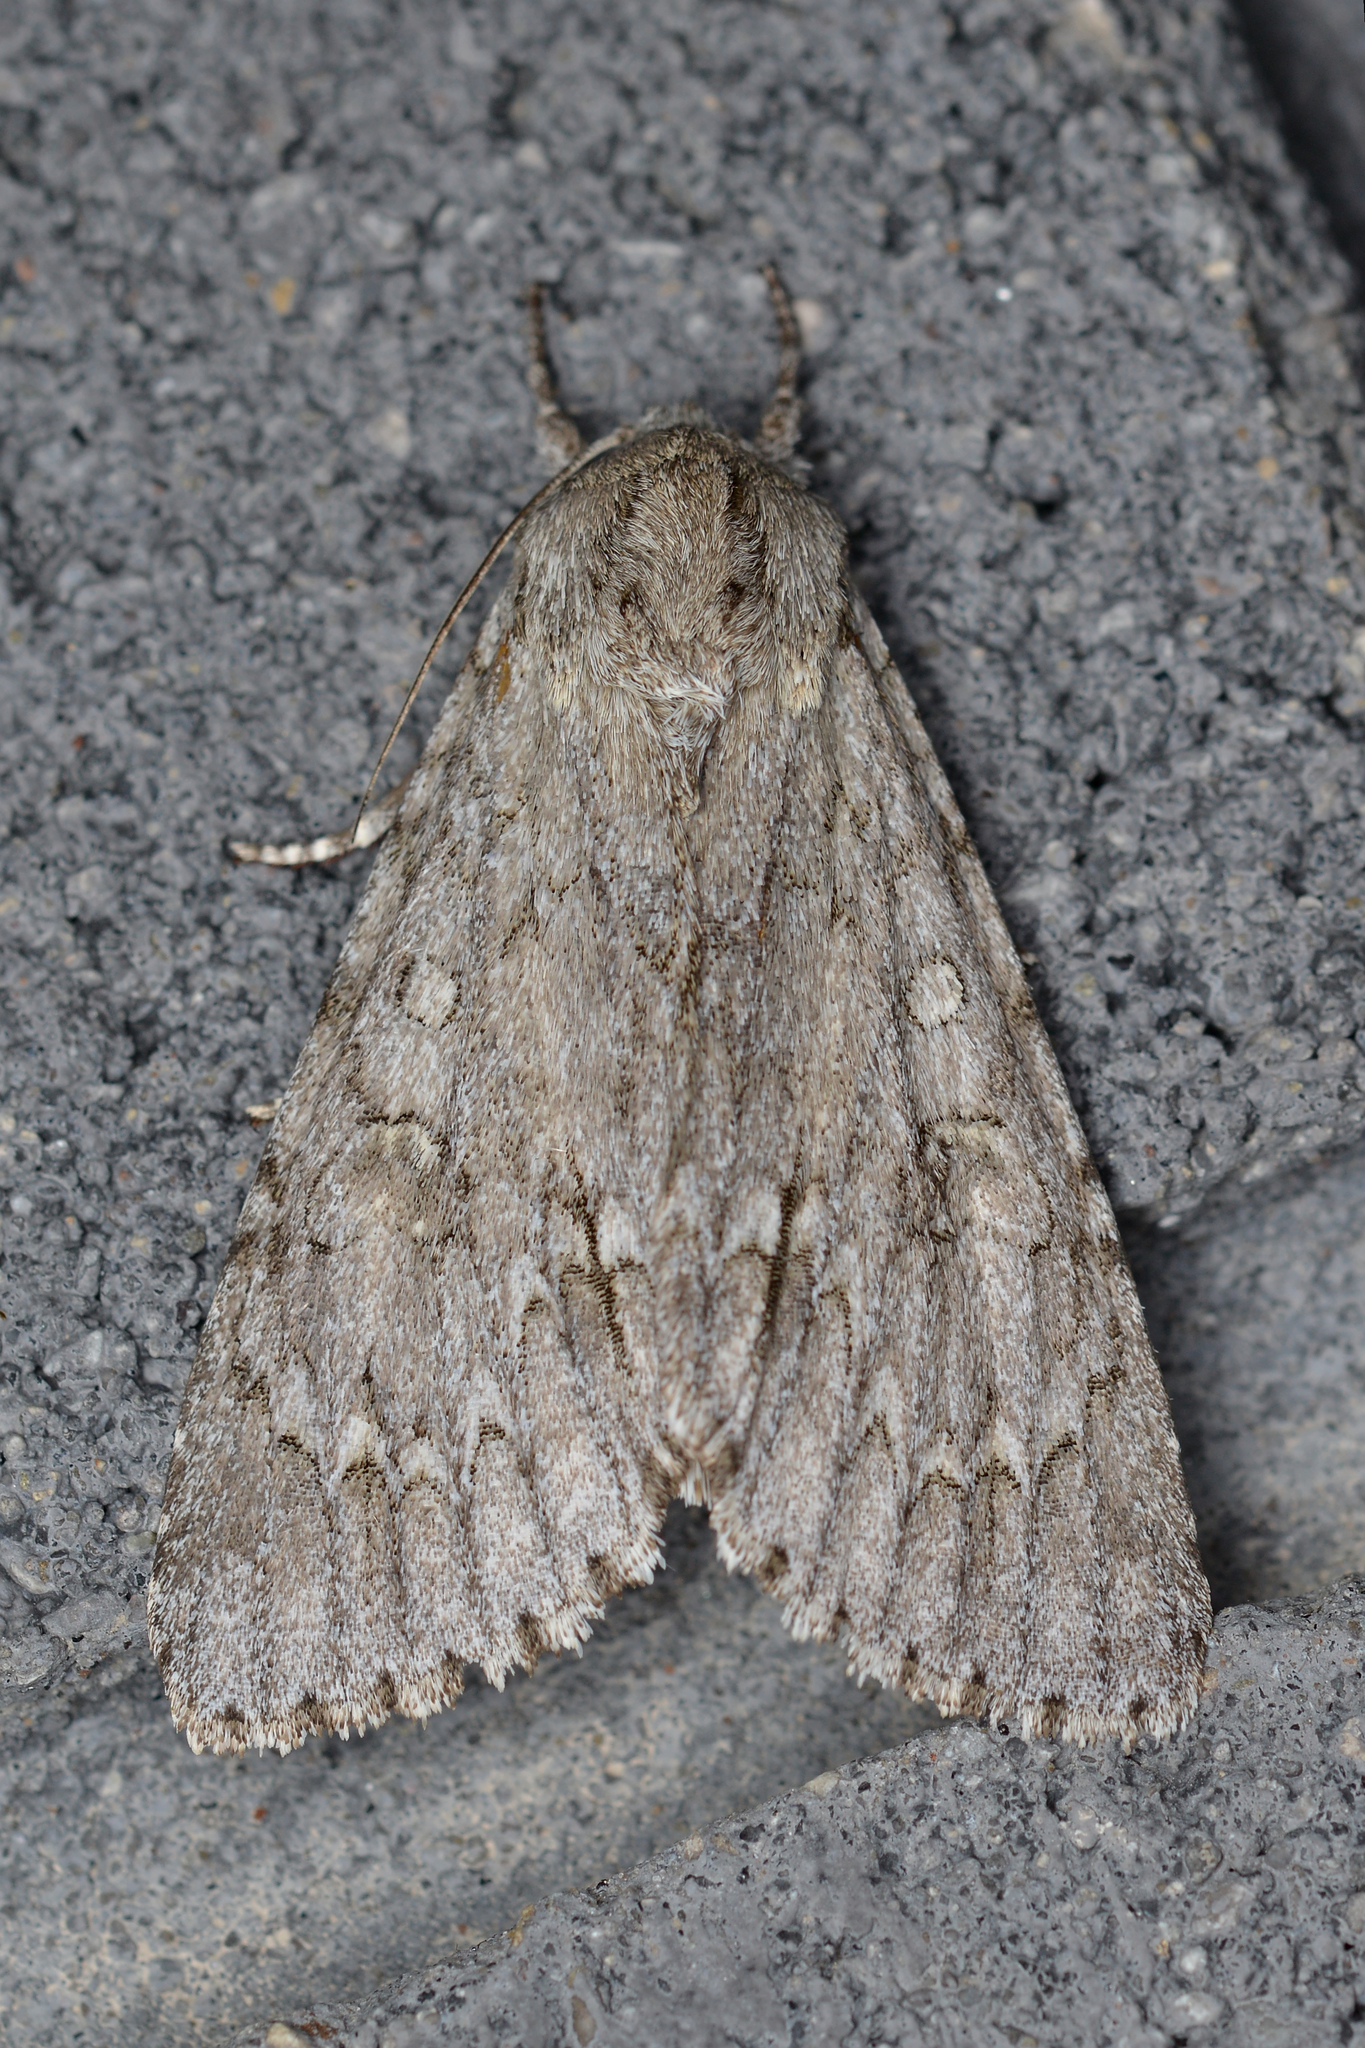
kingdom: Animalia
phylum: Arthropoda
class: Insecta
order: Lepidoptera
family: Noctuidae
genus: Acronicta
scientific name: Acronicta americana
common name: American dagger
